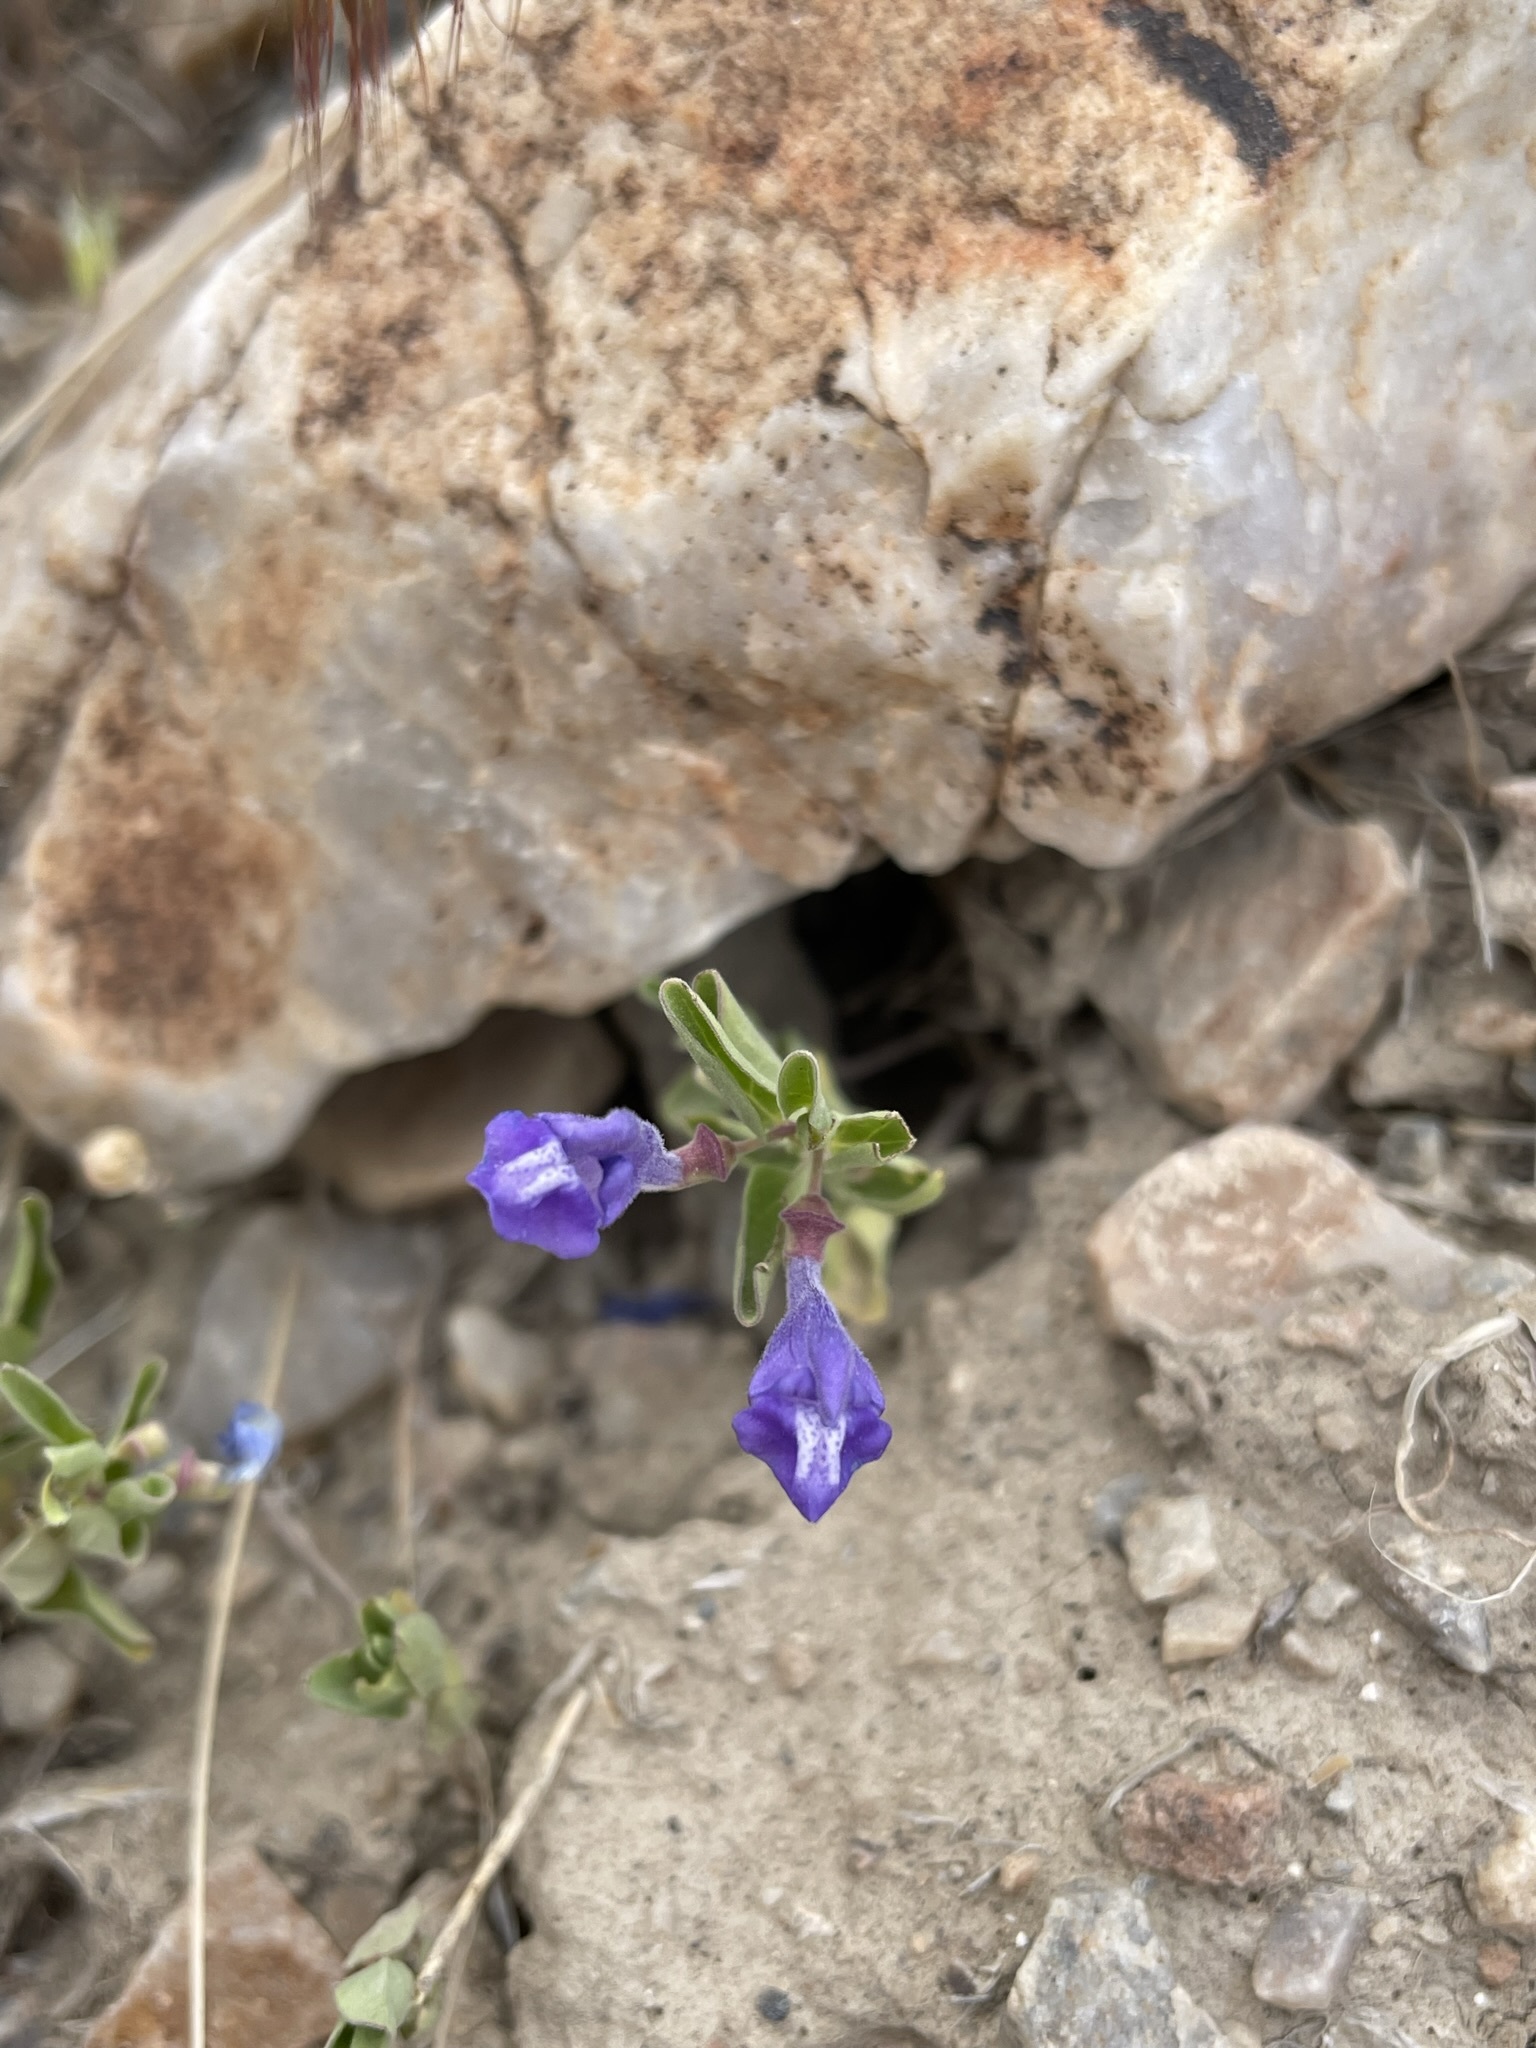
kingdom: Plantae
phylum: Tracheophyta
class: Magnoliopsida
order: Lamiales
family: Lamiaceae
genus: Scutellaria
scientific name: Scutellaria angustifolia
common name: Narrow-leaved skullcap
